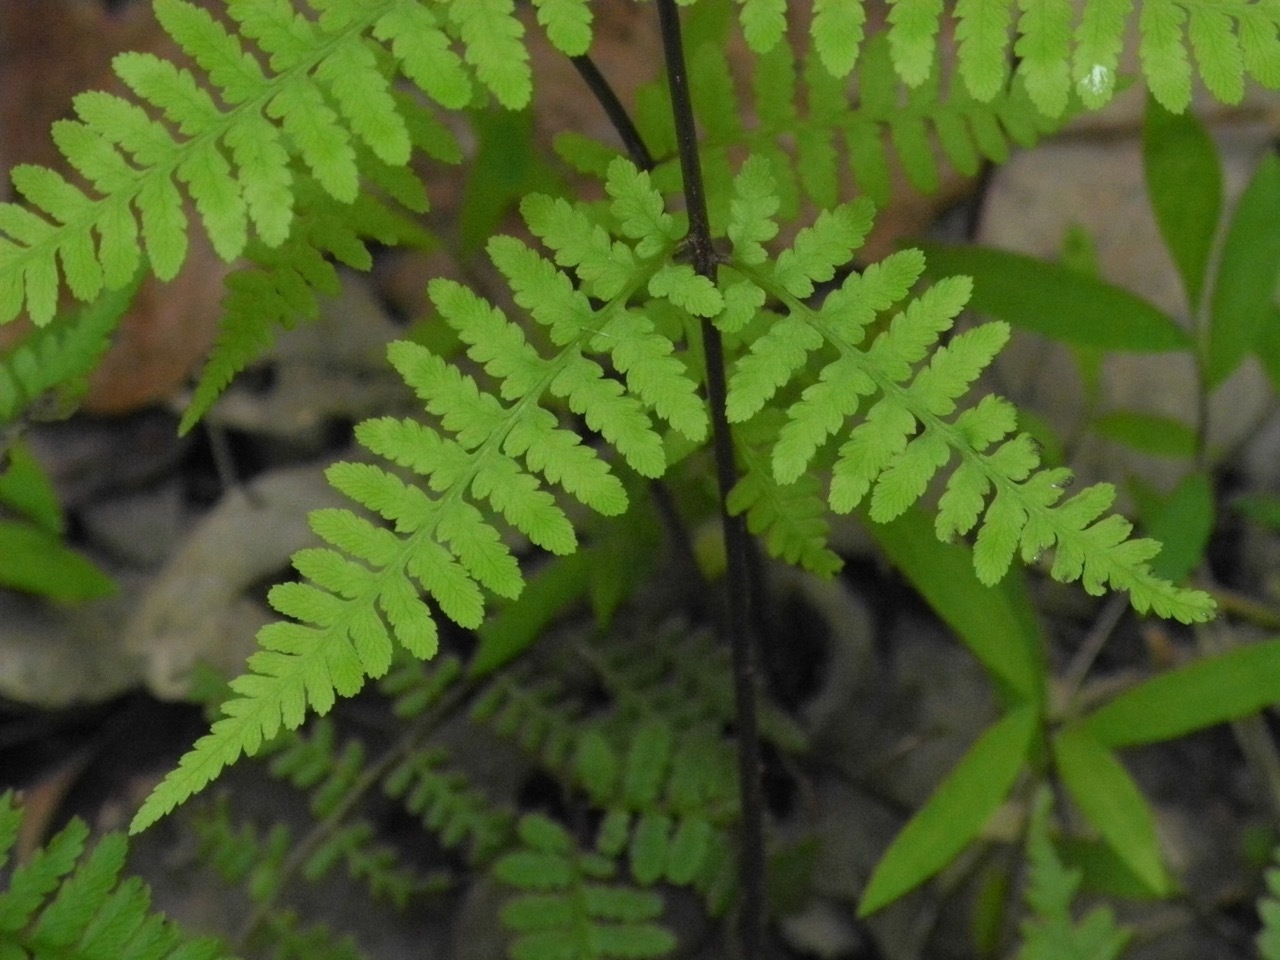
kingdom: Plantae
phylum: Tracheophyta
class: Polypodiopsida
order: Polypodiales
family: Athyriaceae
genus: Athyrium
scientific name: Athyrium asplenioides
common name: Southern lady fern
